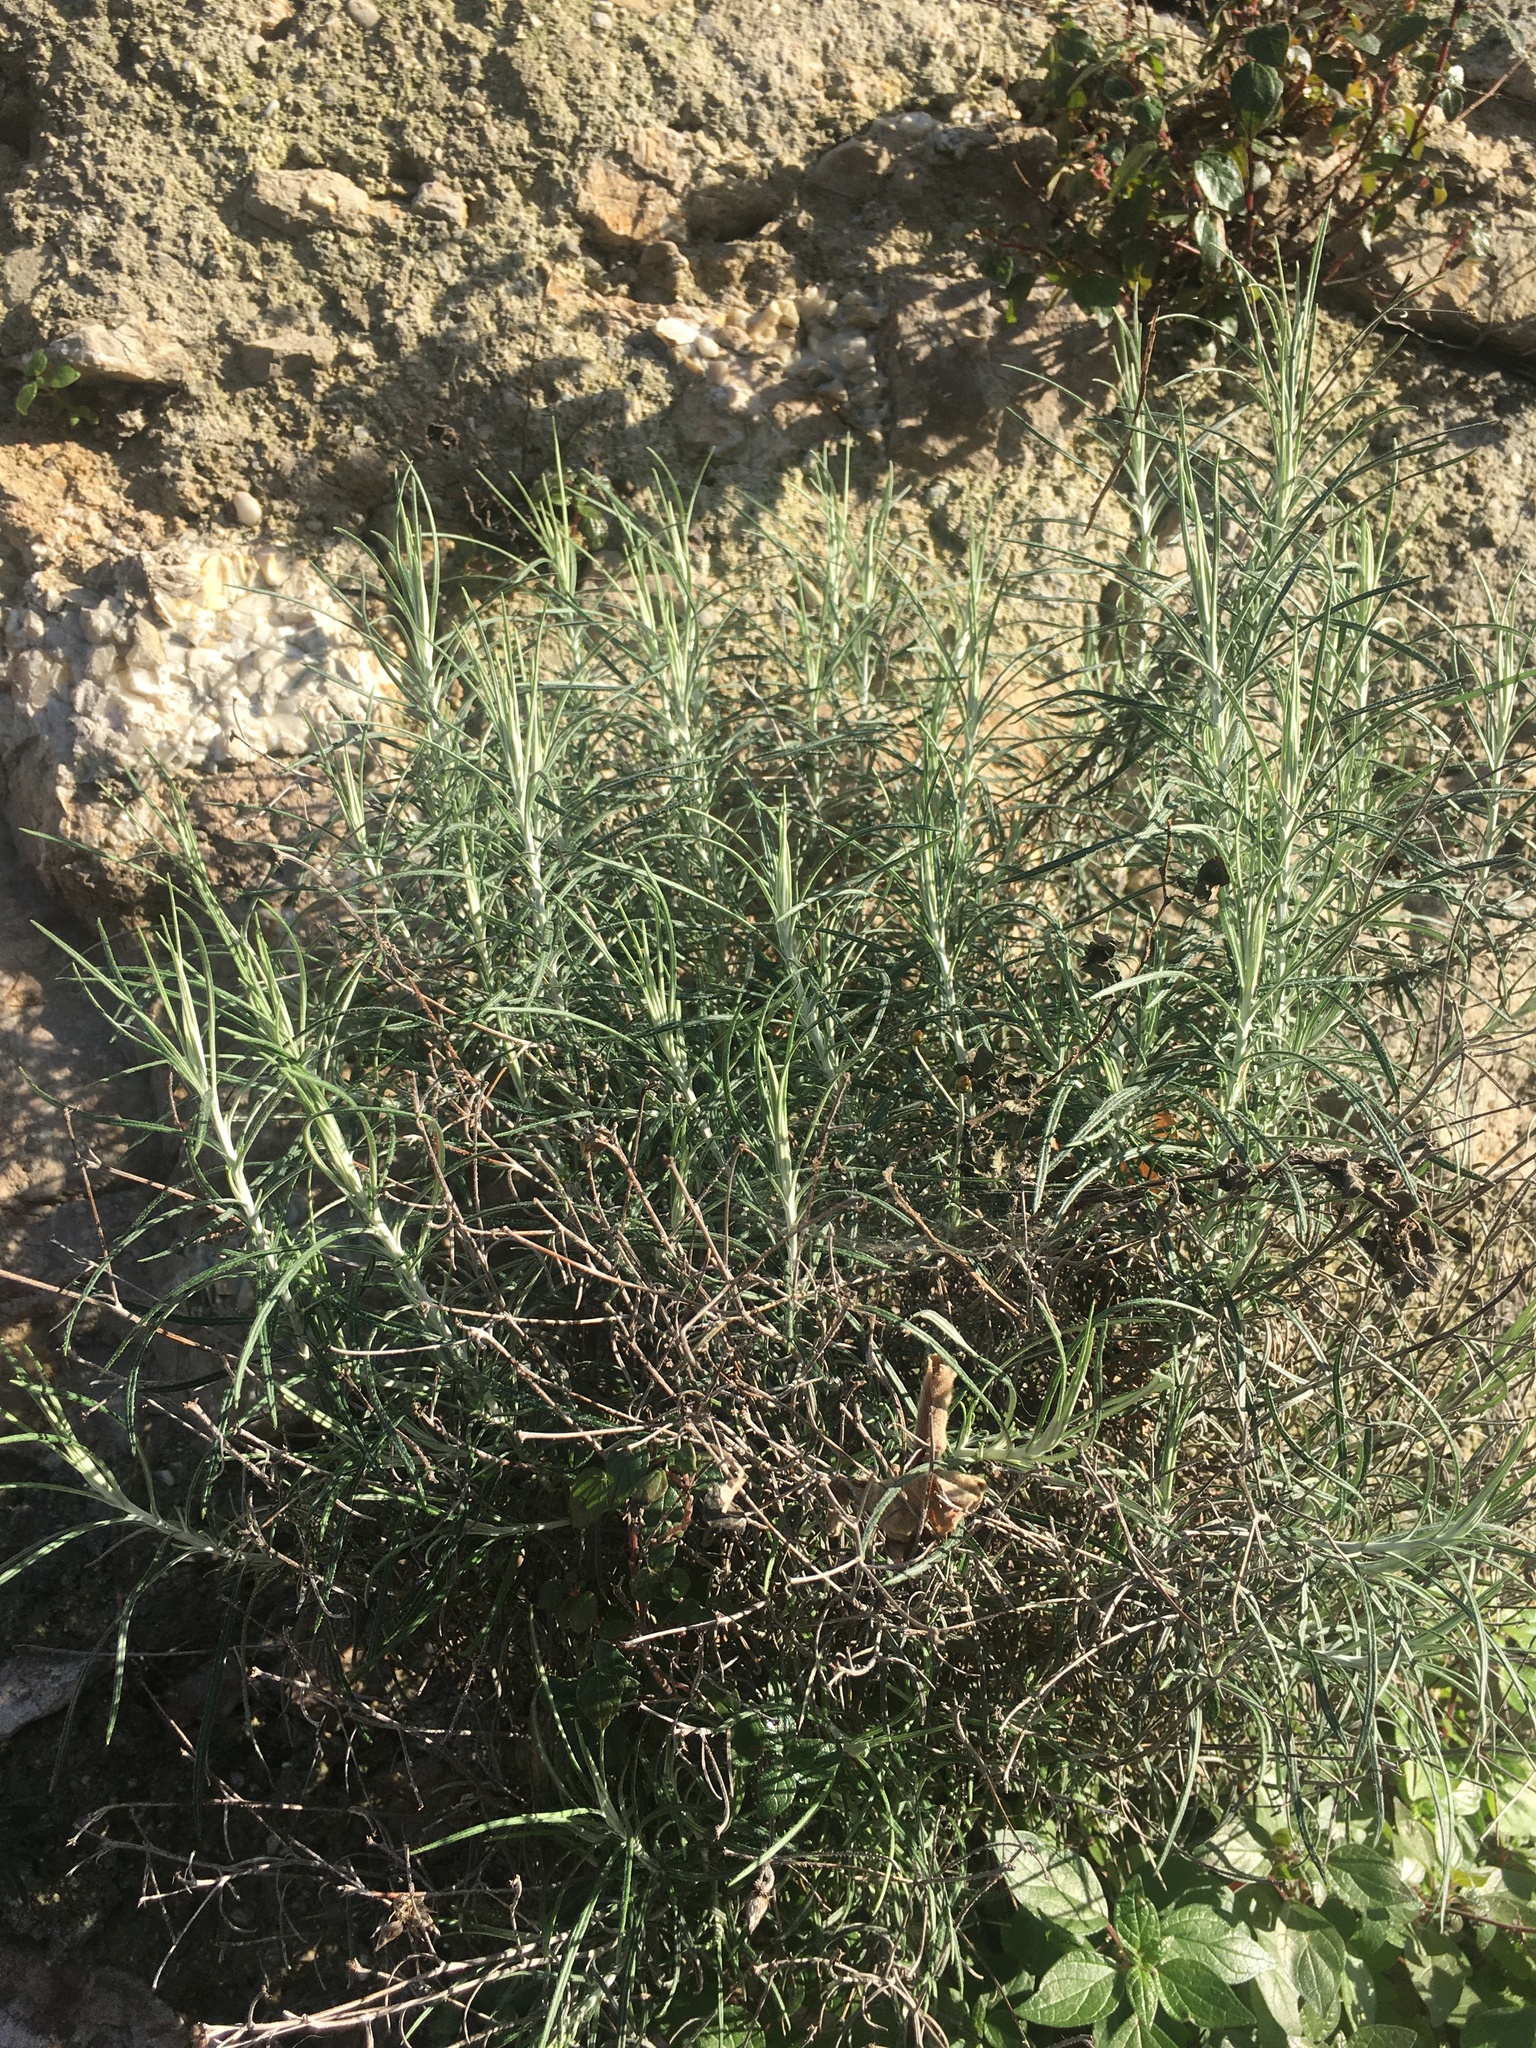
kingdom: Plantae
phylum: Tracheophyta
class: Magnoliopsida
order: Asterales
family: Asteraceae
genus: Phagnalon
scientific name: Phagnalon saxatile
